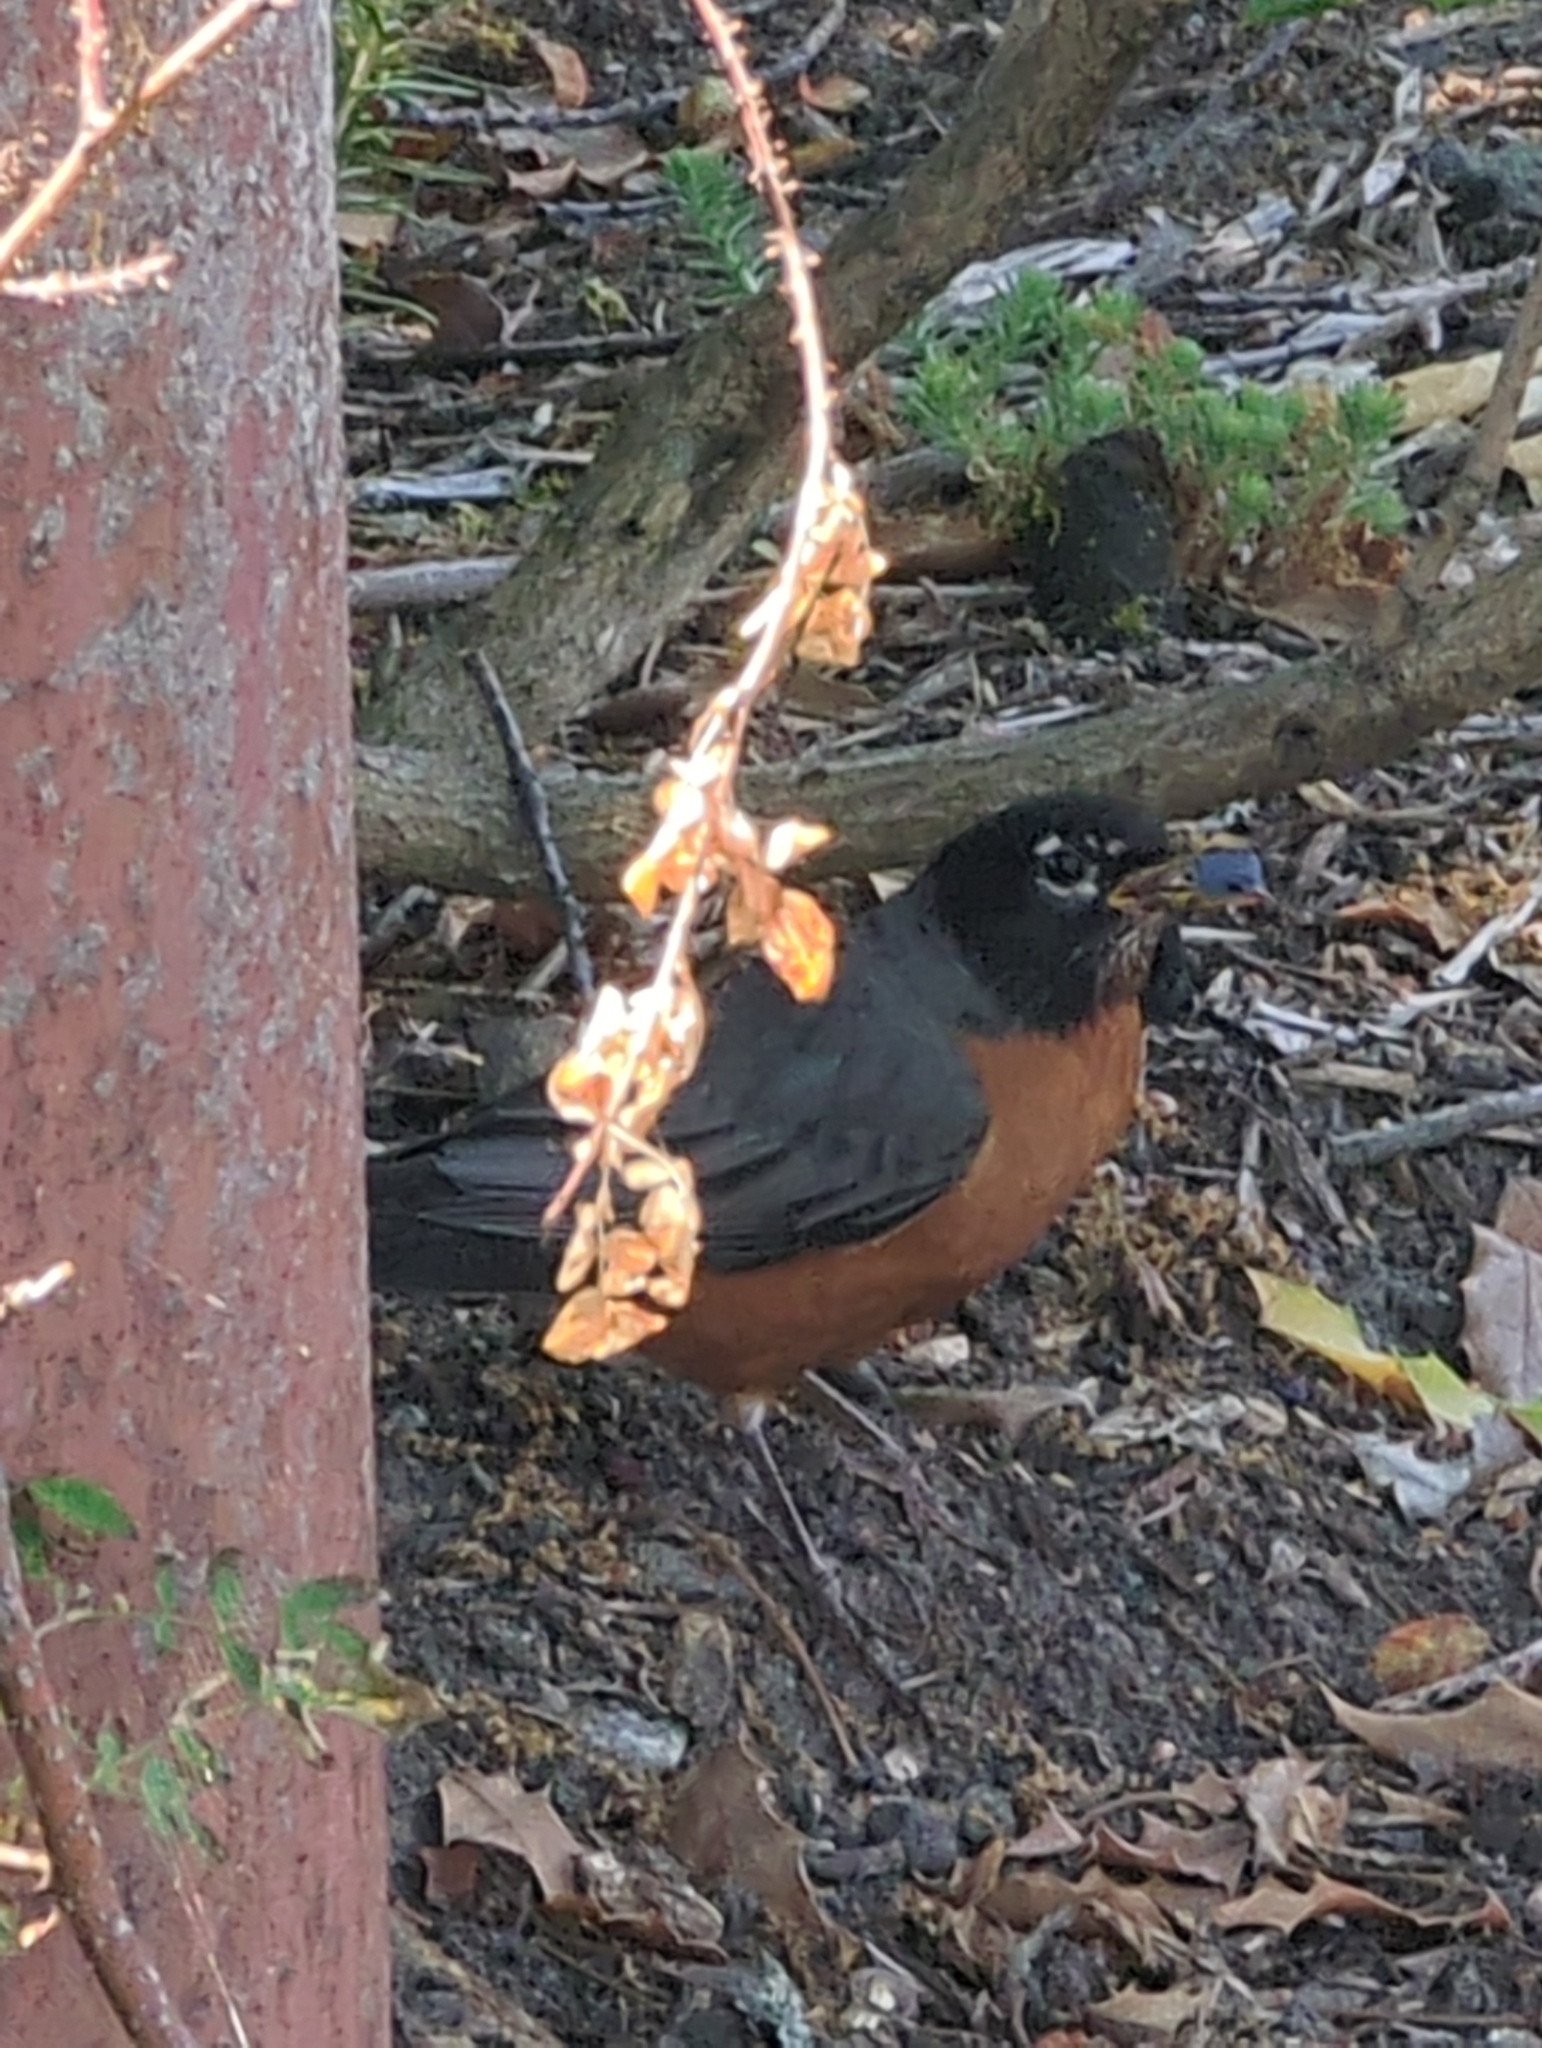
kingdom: Animalia
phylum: Chordata
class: Aves
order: Passeriformes
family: Turdidae
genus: Turdus
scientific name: Turdus migratorius
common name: American robin
